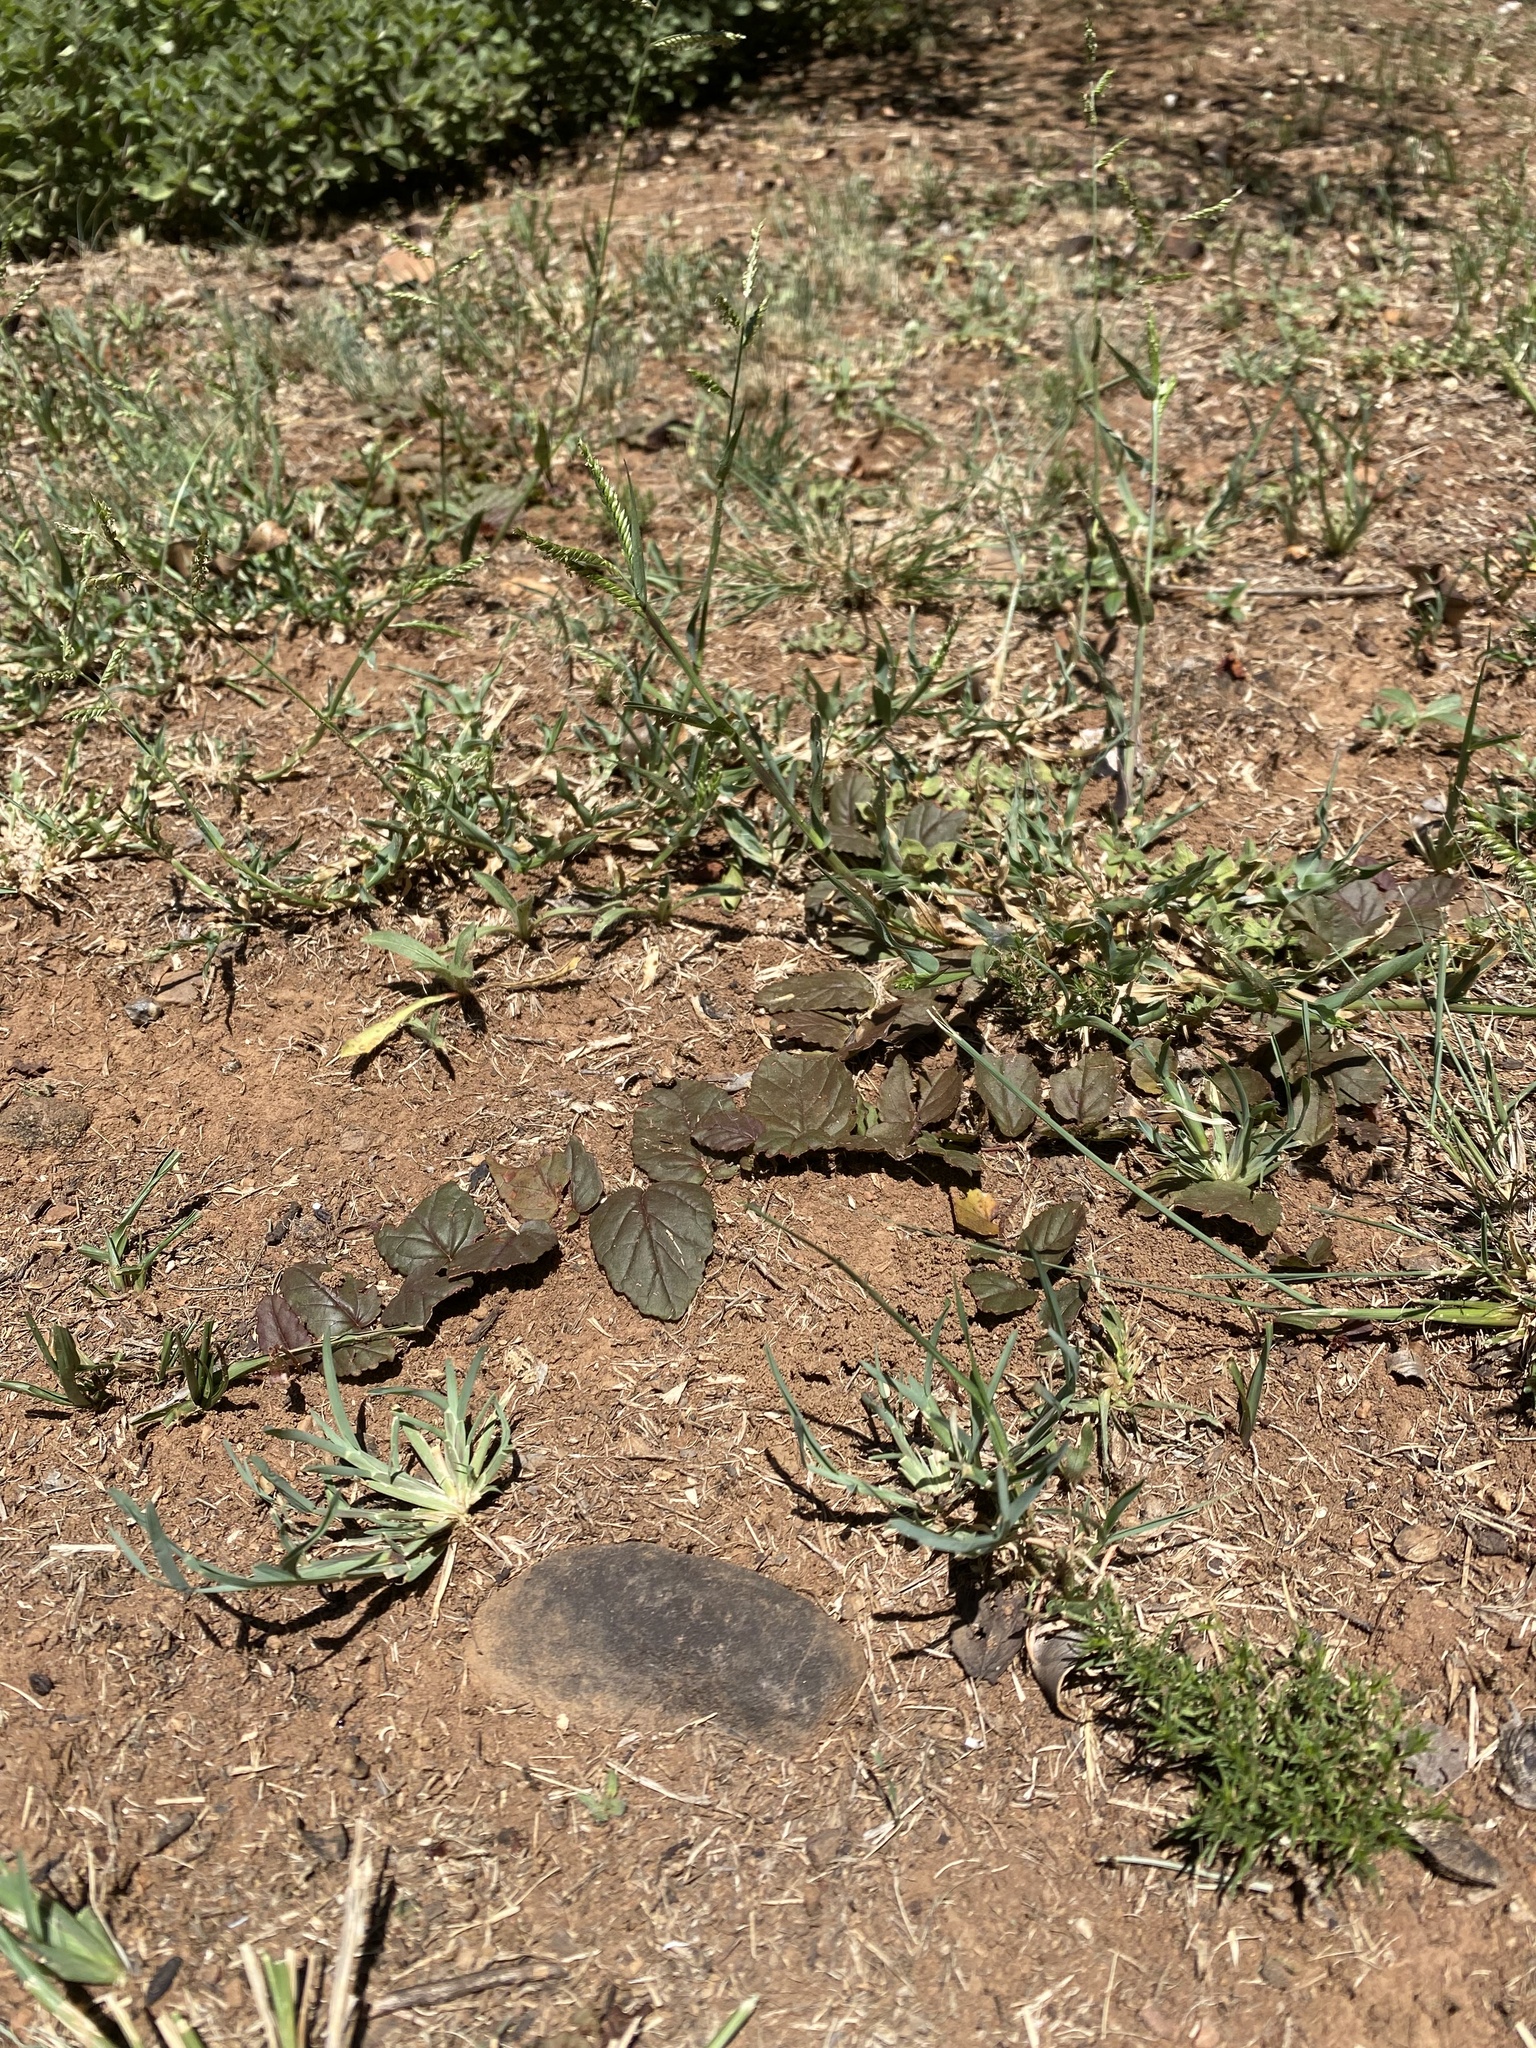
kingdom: Plantae
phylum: Tracheophyta
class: Magnoliopsida
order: Malvales
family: Malvaceae
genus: Hermannia
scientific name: Hermannia depressa
